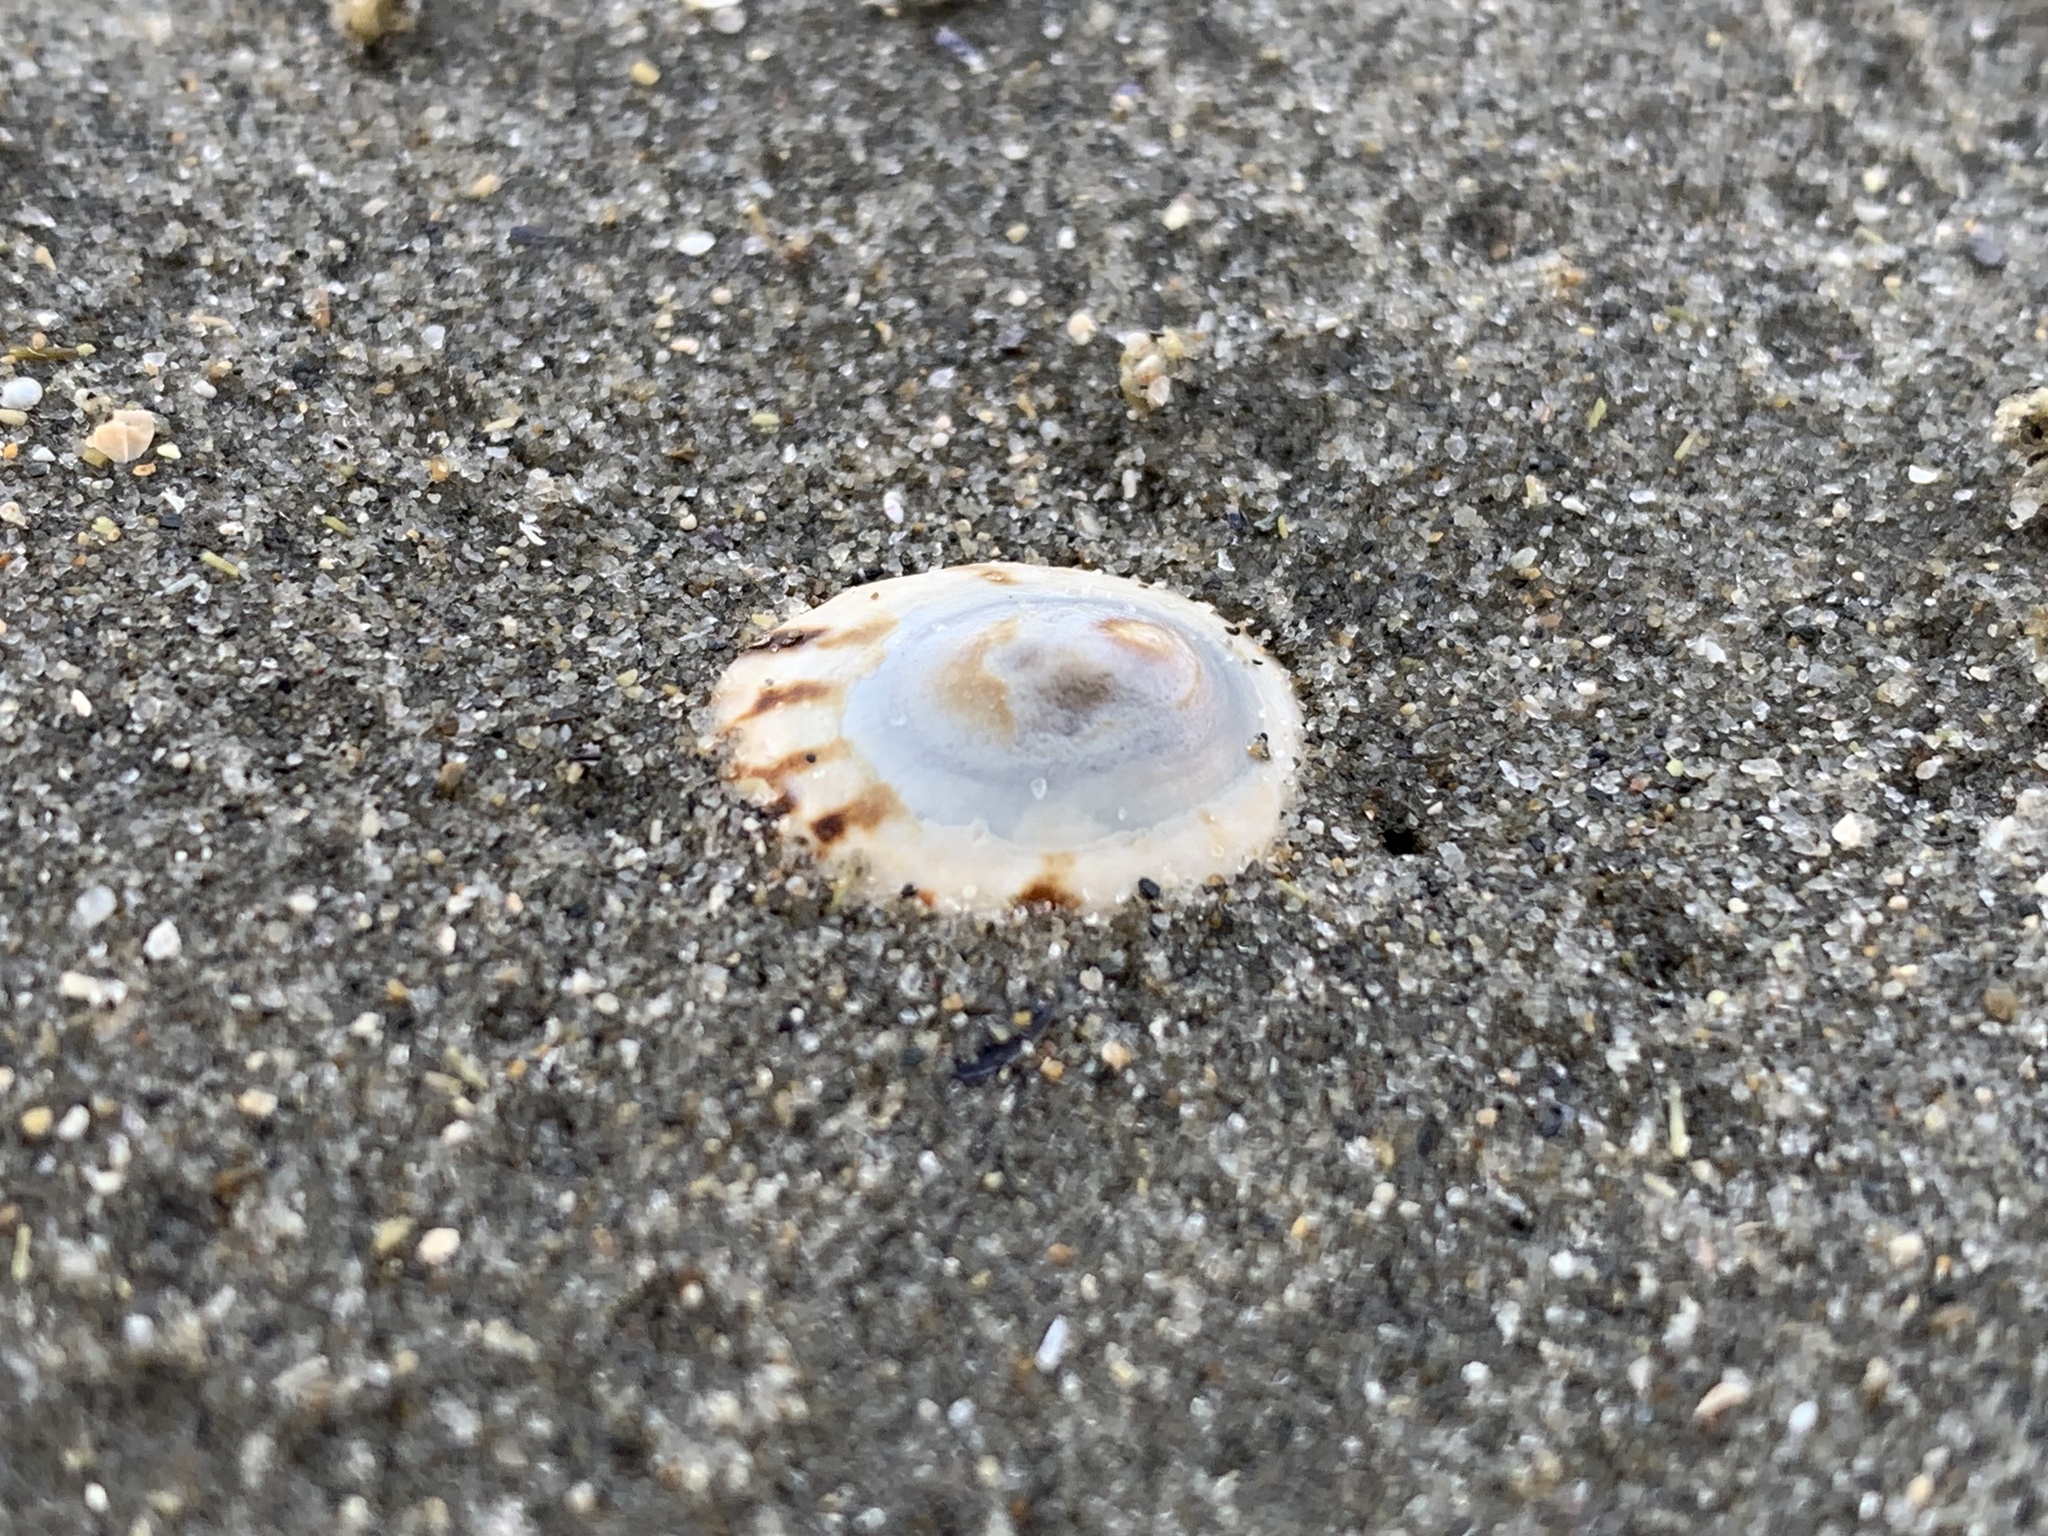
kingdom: Animalia
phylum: Mollusca
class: Gastropoda
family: Lottiidae
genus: Testudinalia
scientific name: Testudinalia testudinalis
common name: Common tortoiseshell limpet
